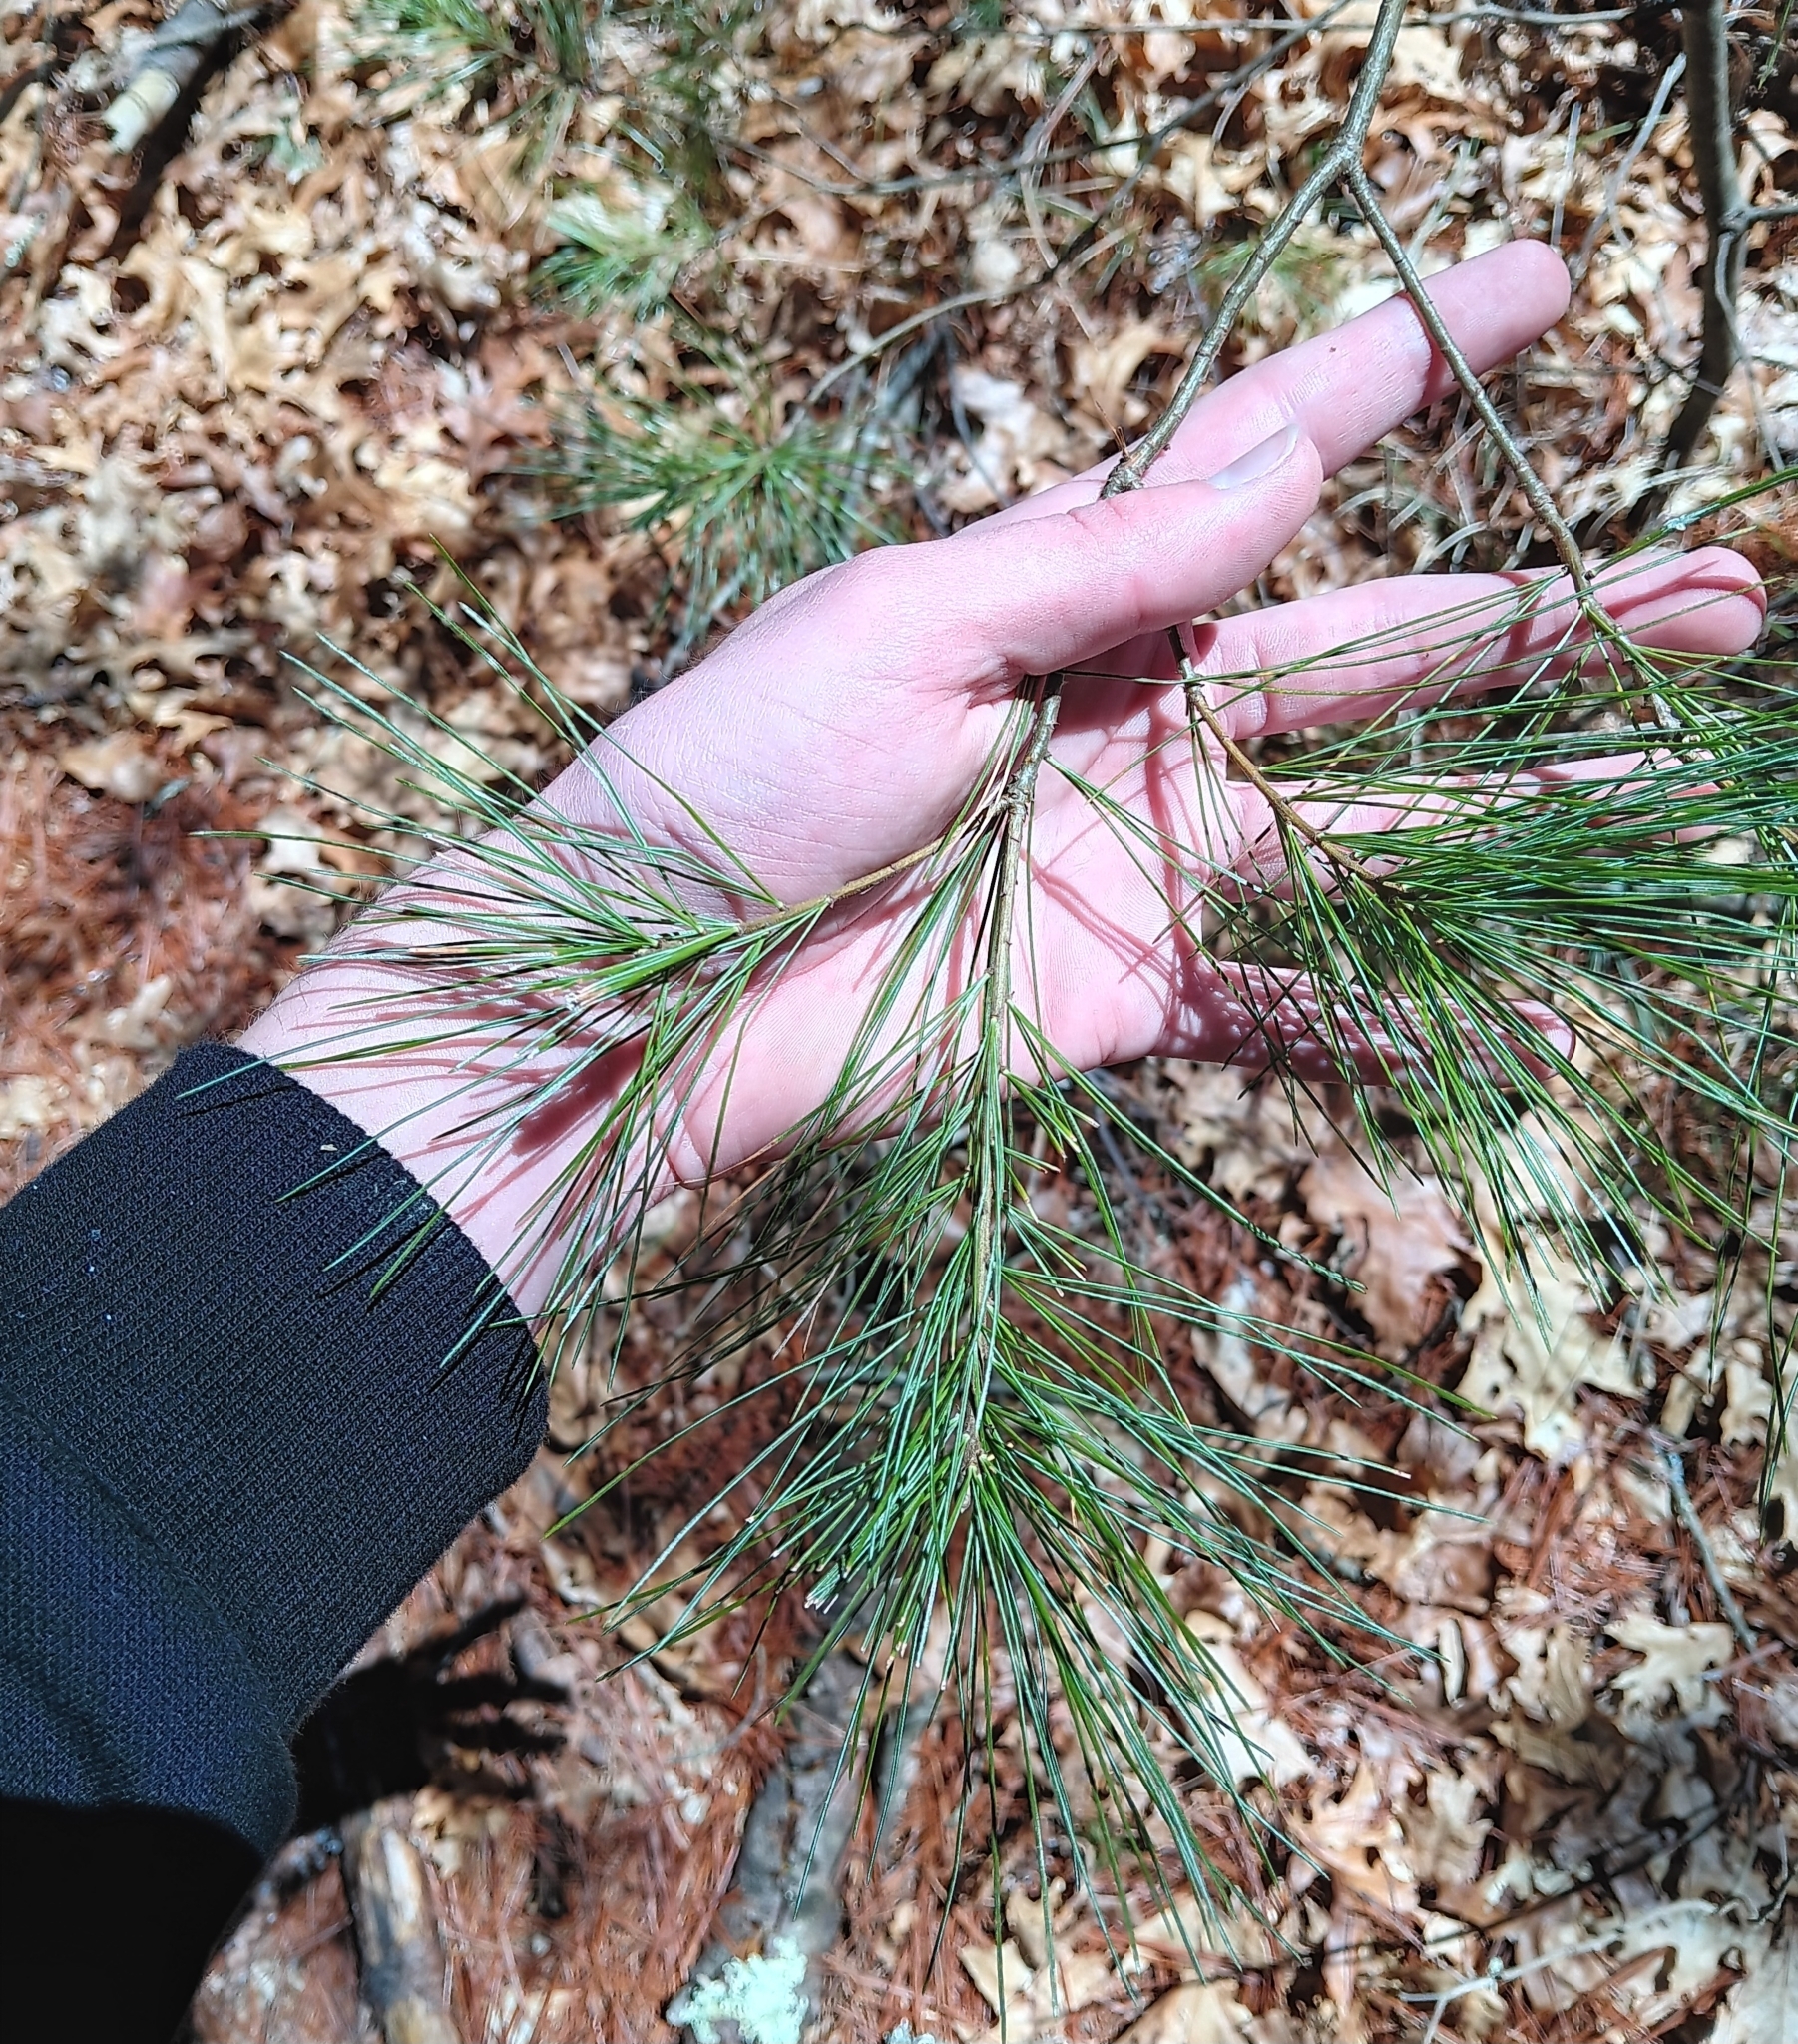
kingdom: Plantae
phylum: Tracheophyta
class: Pinopsida
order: Pinales
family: Pinaceae
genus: Pinus
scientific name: Pinus strobus
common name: Weymouth pine
